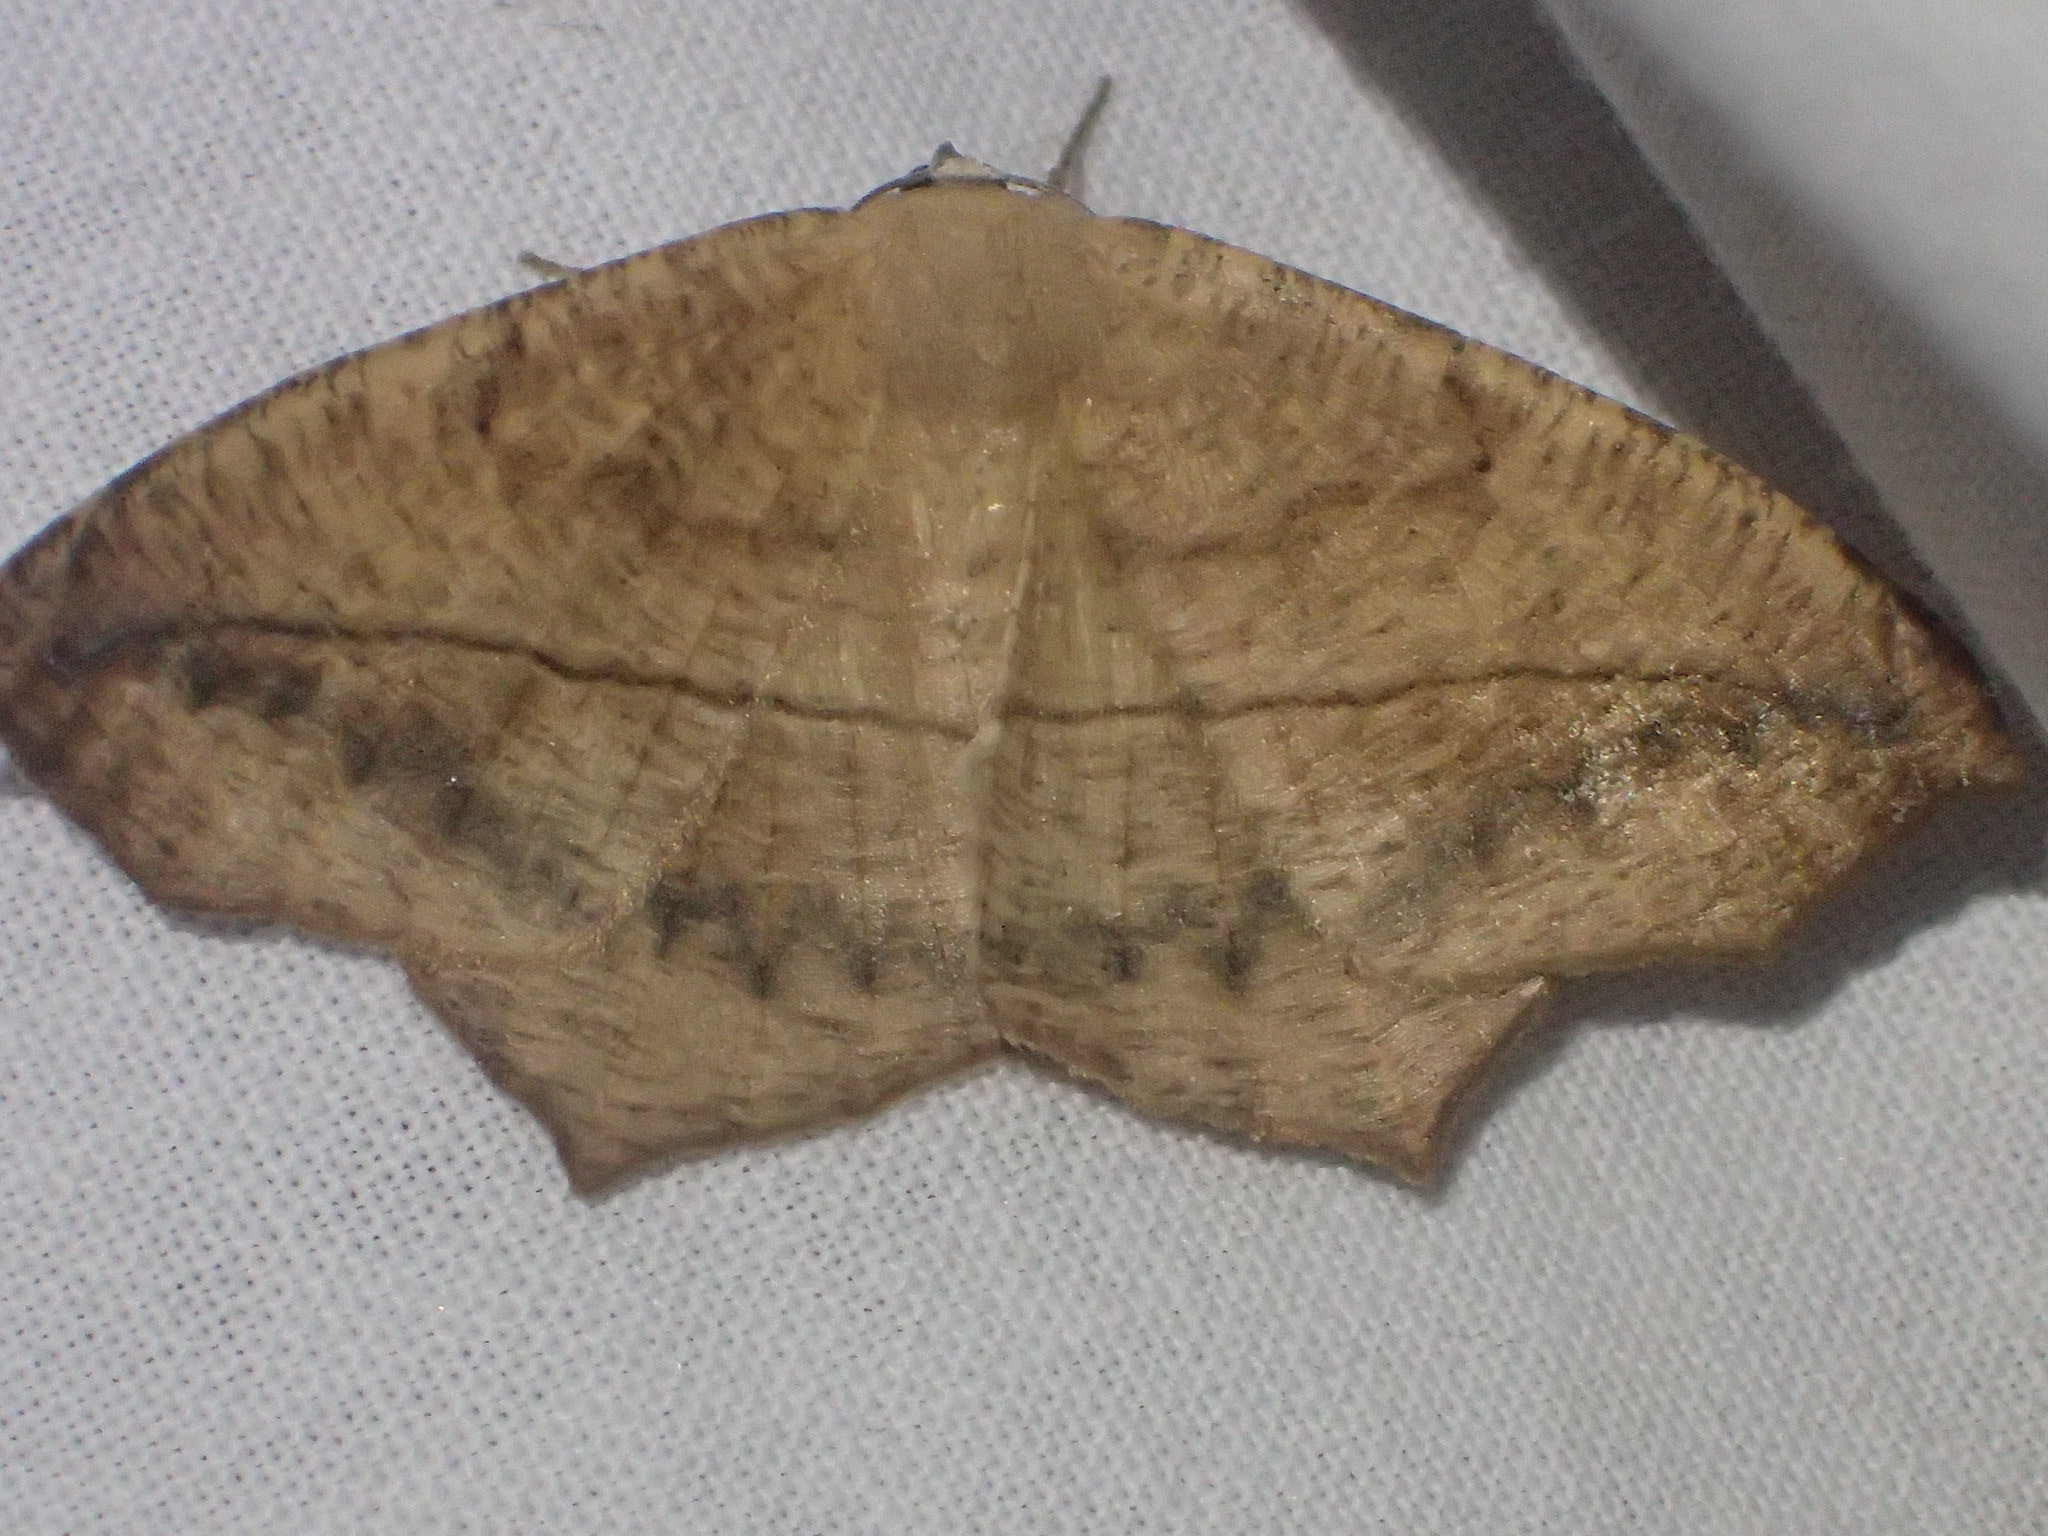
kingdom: Animalia
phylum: Arthropoda
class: Insecta
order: Lepidoptera
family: Geometridae
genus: Prochoerodes
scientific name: Prochoerodes lineola
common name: Large maple spanworm
